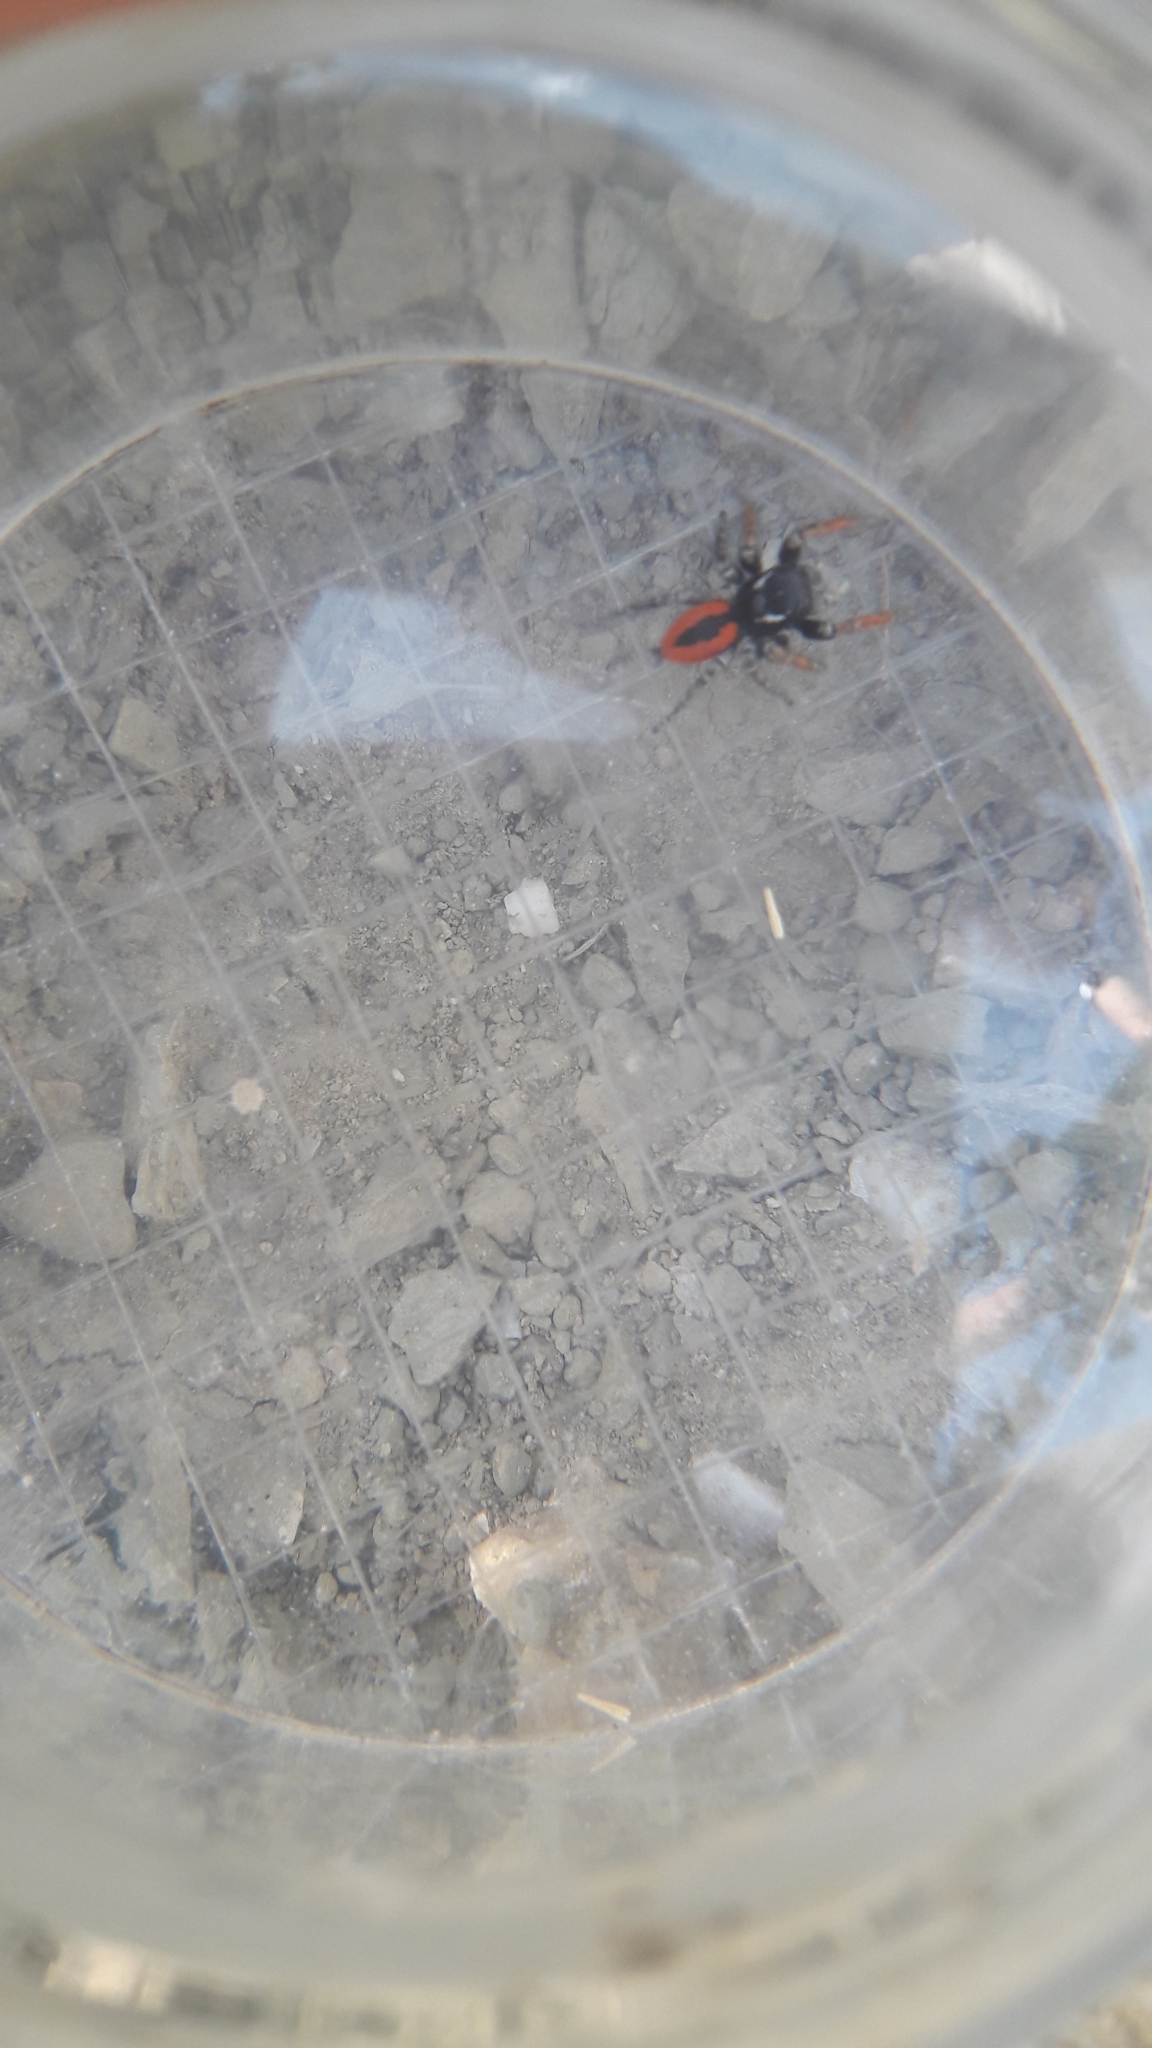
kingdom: Animalia
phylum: Arthropoda
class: Arachnida
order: Araneae
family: Salticidae
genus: Philaeus
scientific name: Philaeus chrysops
